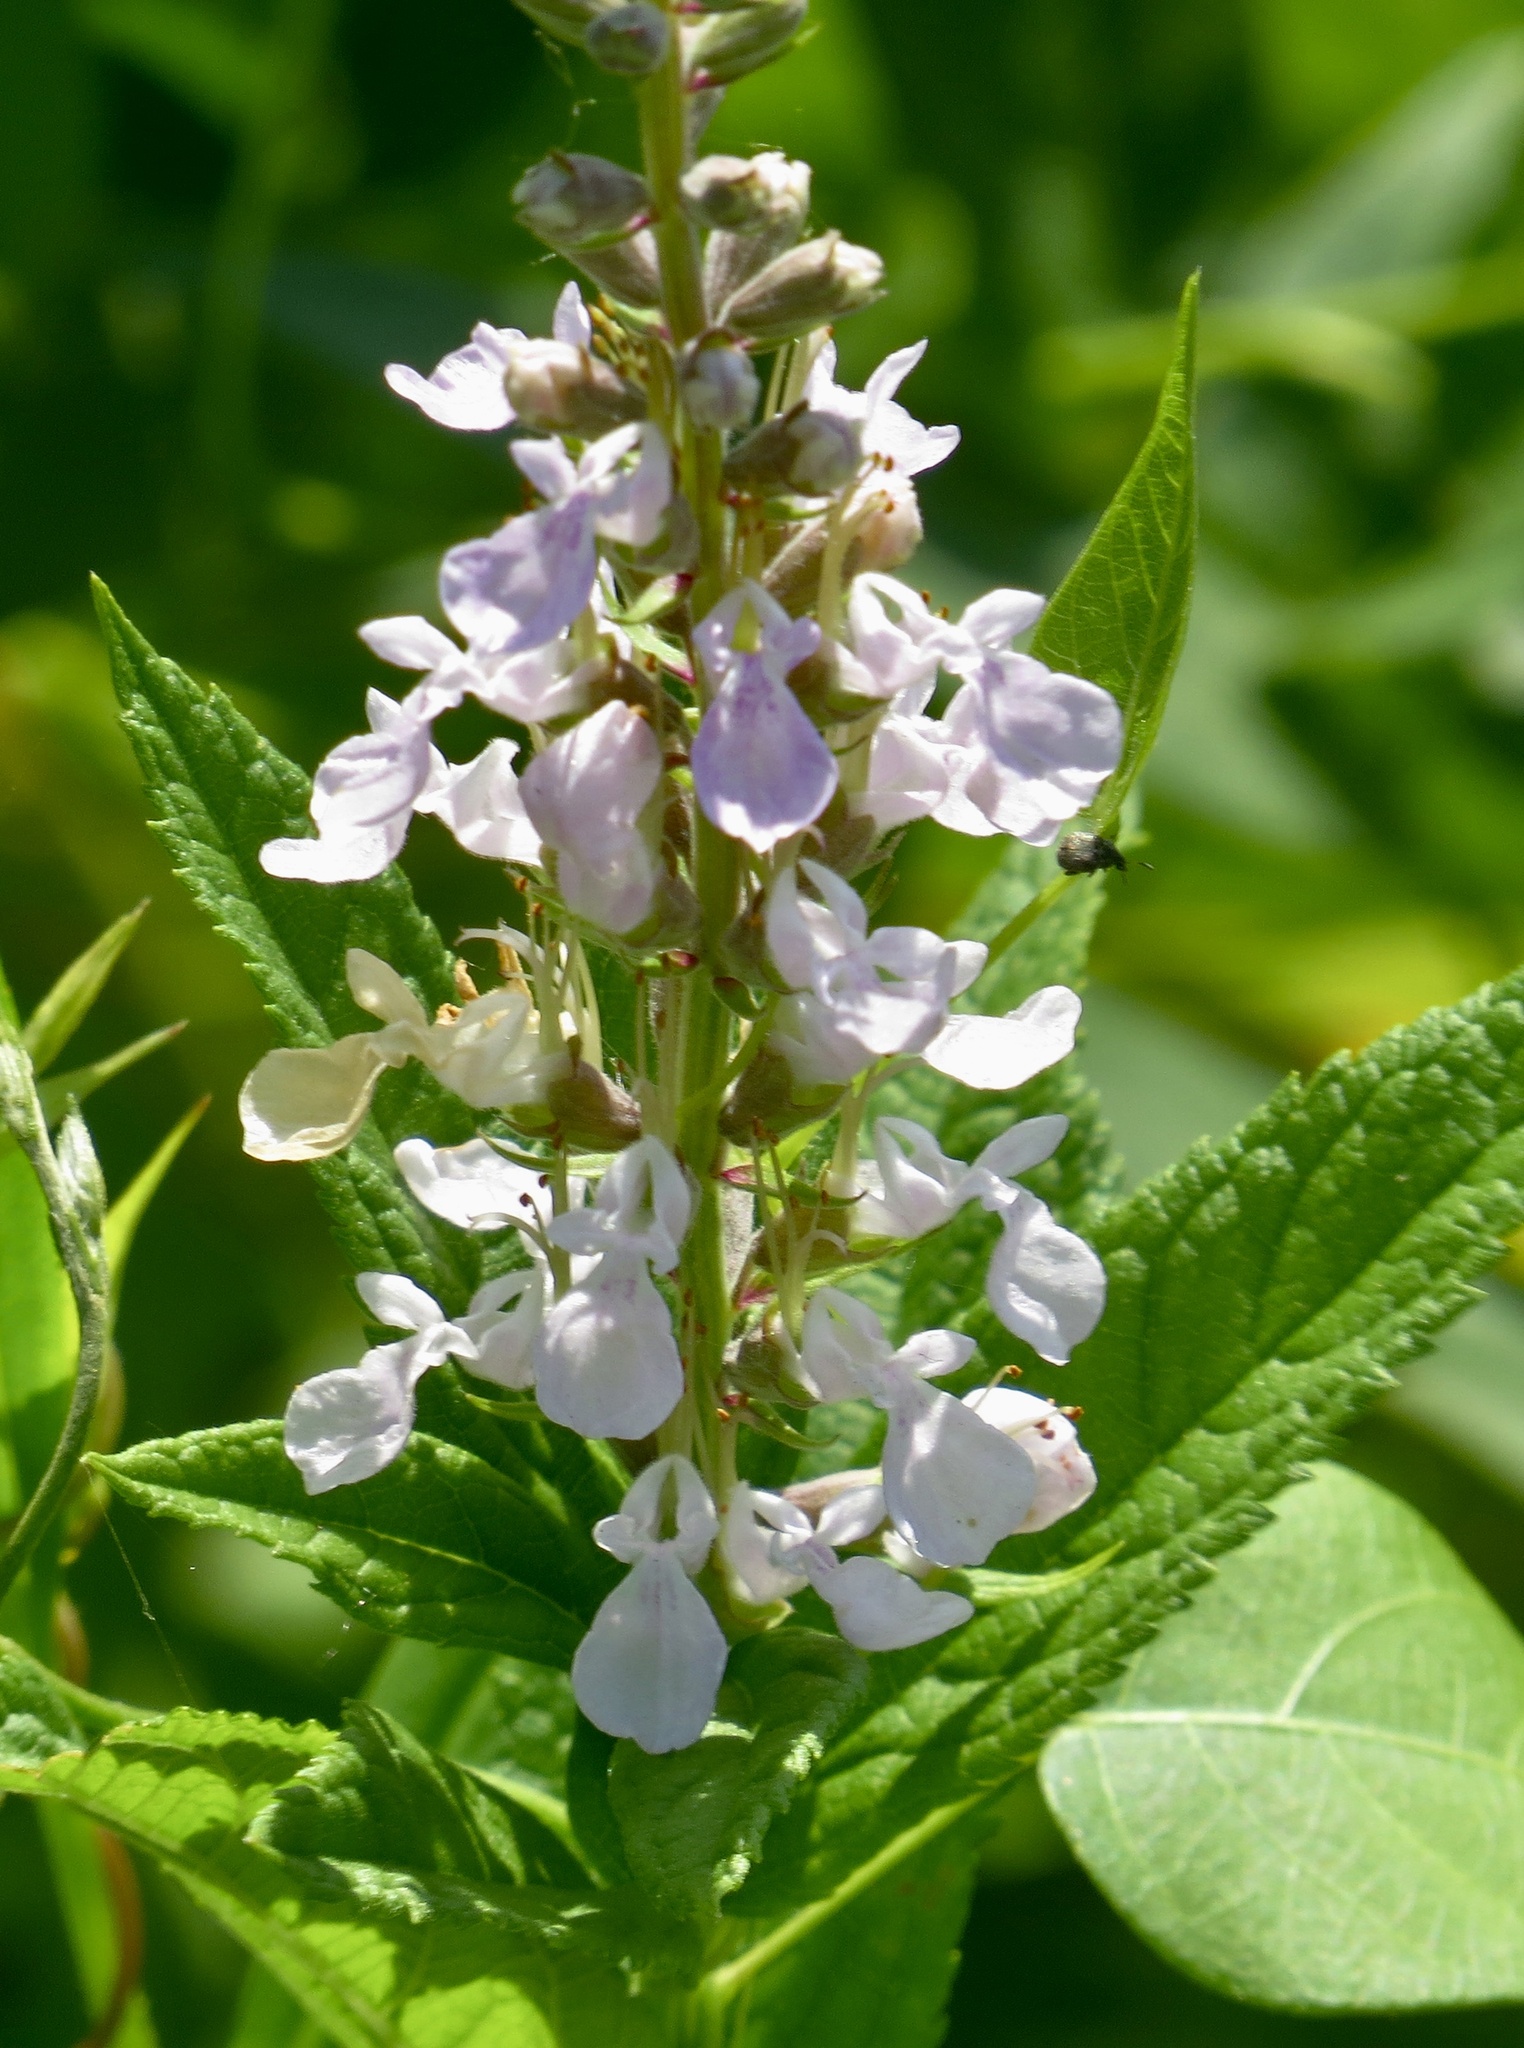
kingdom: Plantae
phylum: Tracheophyta
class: Magnoliopsida
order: Lamiales
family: Lamiaceae
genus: Teucrium
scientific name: Teucrium canadense
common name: American germander
